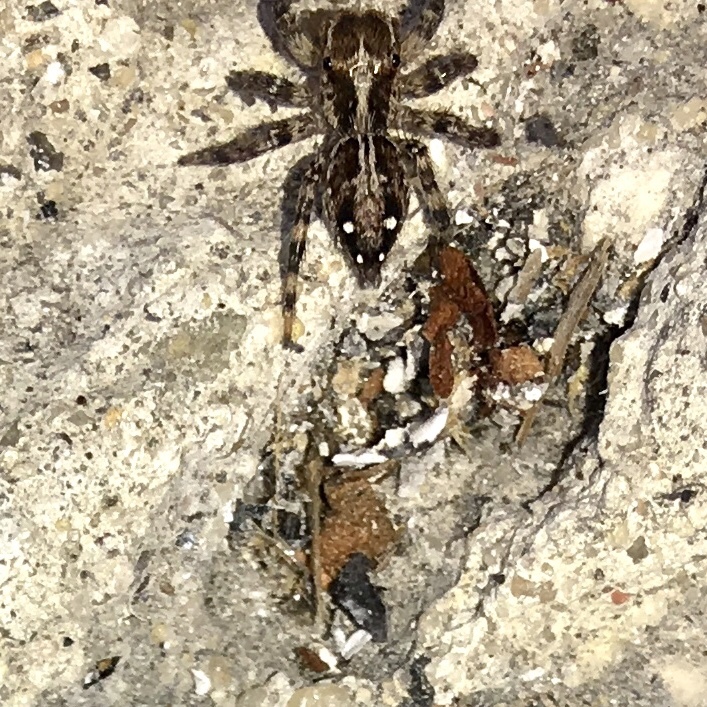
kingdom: Animalia
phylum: Arthropoda
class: Arachnida
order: Araneae
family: Salticidae
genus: Plexippus
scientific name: Plexippus paykulli
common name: Pantropical jumper
